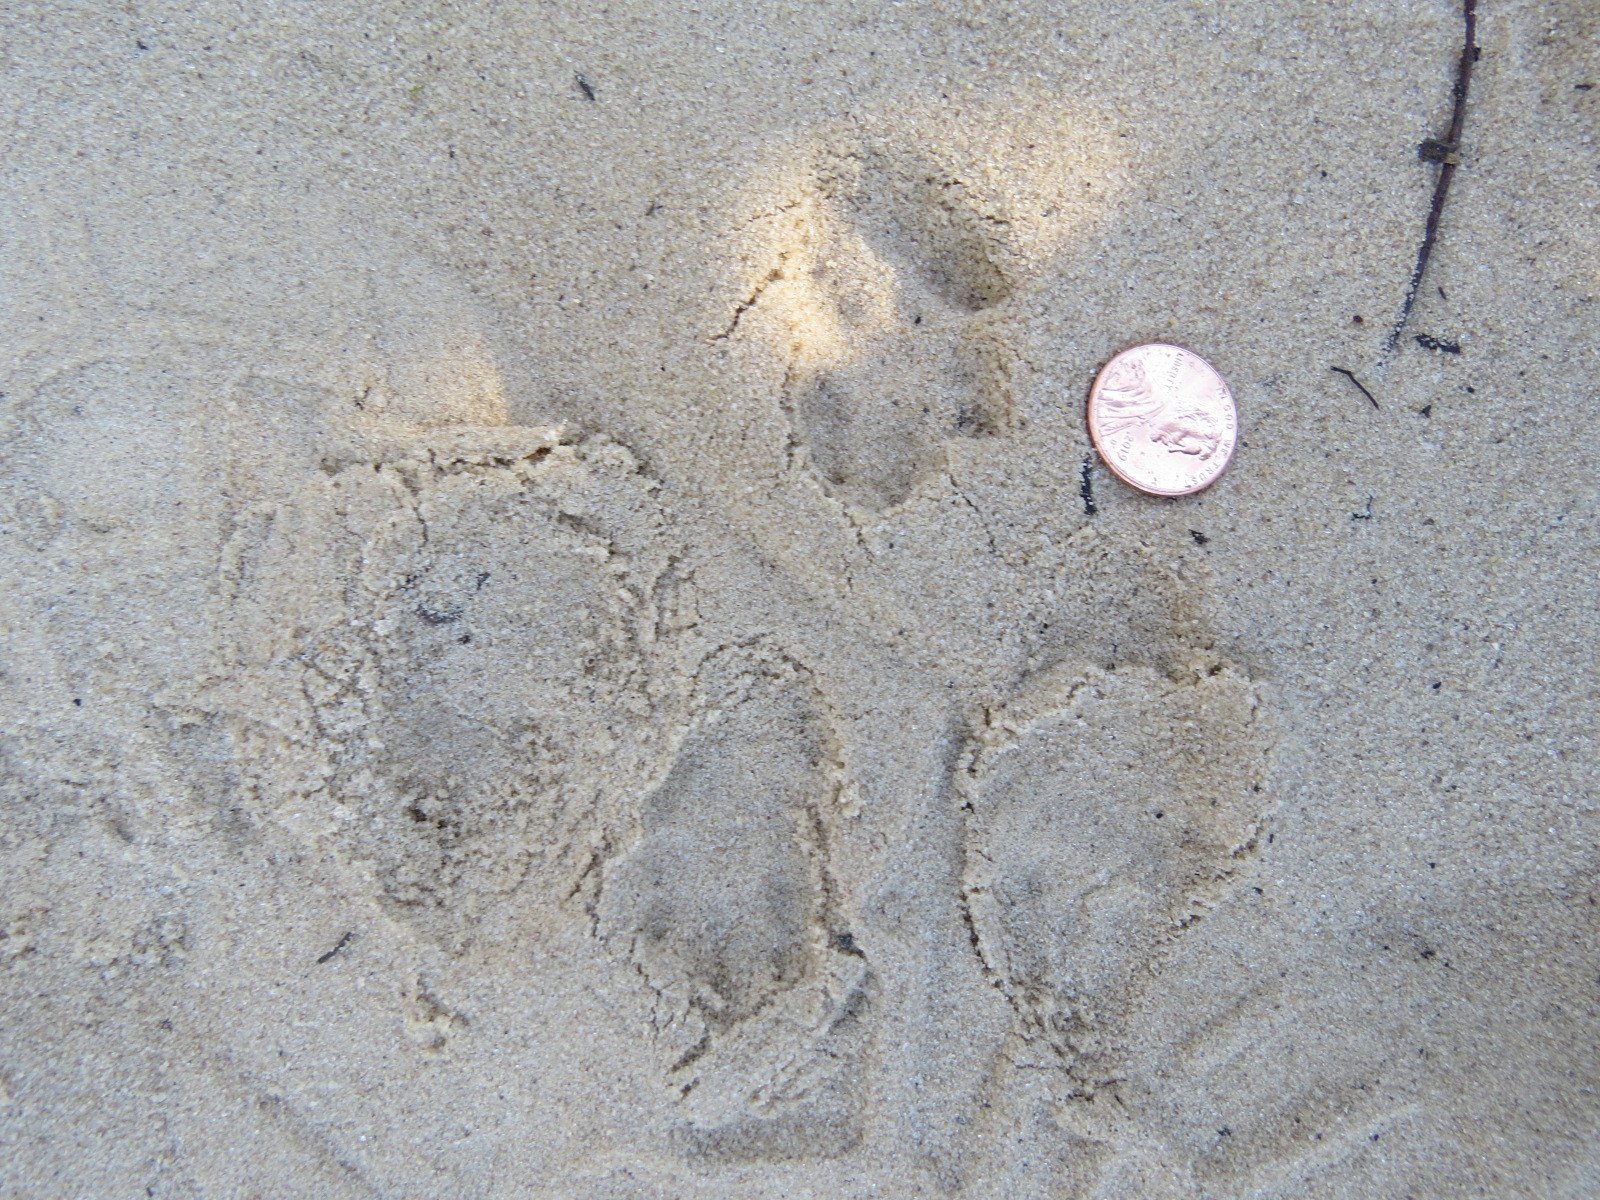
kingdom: Animalia
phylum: Chordata
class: Mammalia
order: Lagomorpha
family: Leporidae
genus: Sylvilagus
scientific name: Sylvilagus bachmani
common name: Brush rabbit
